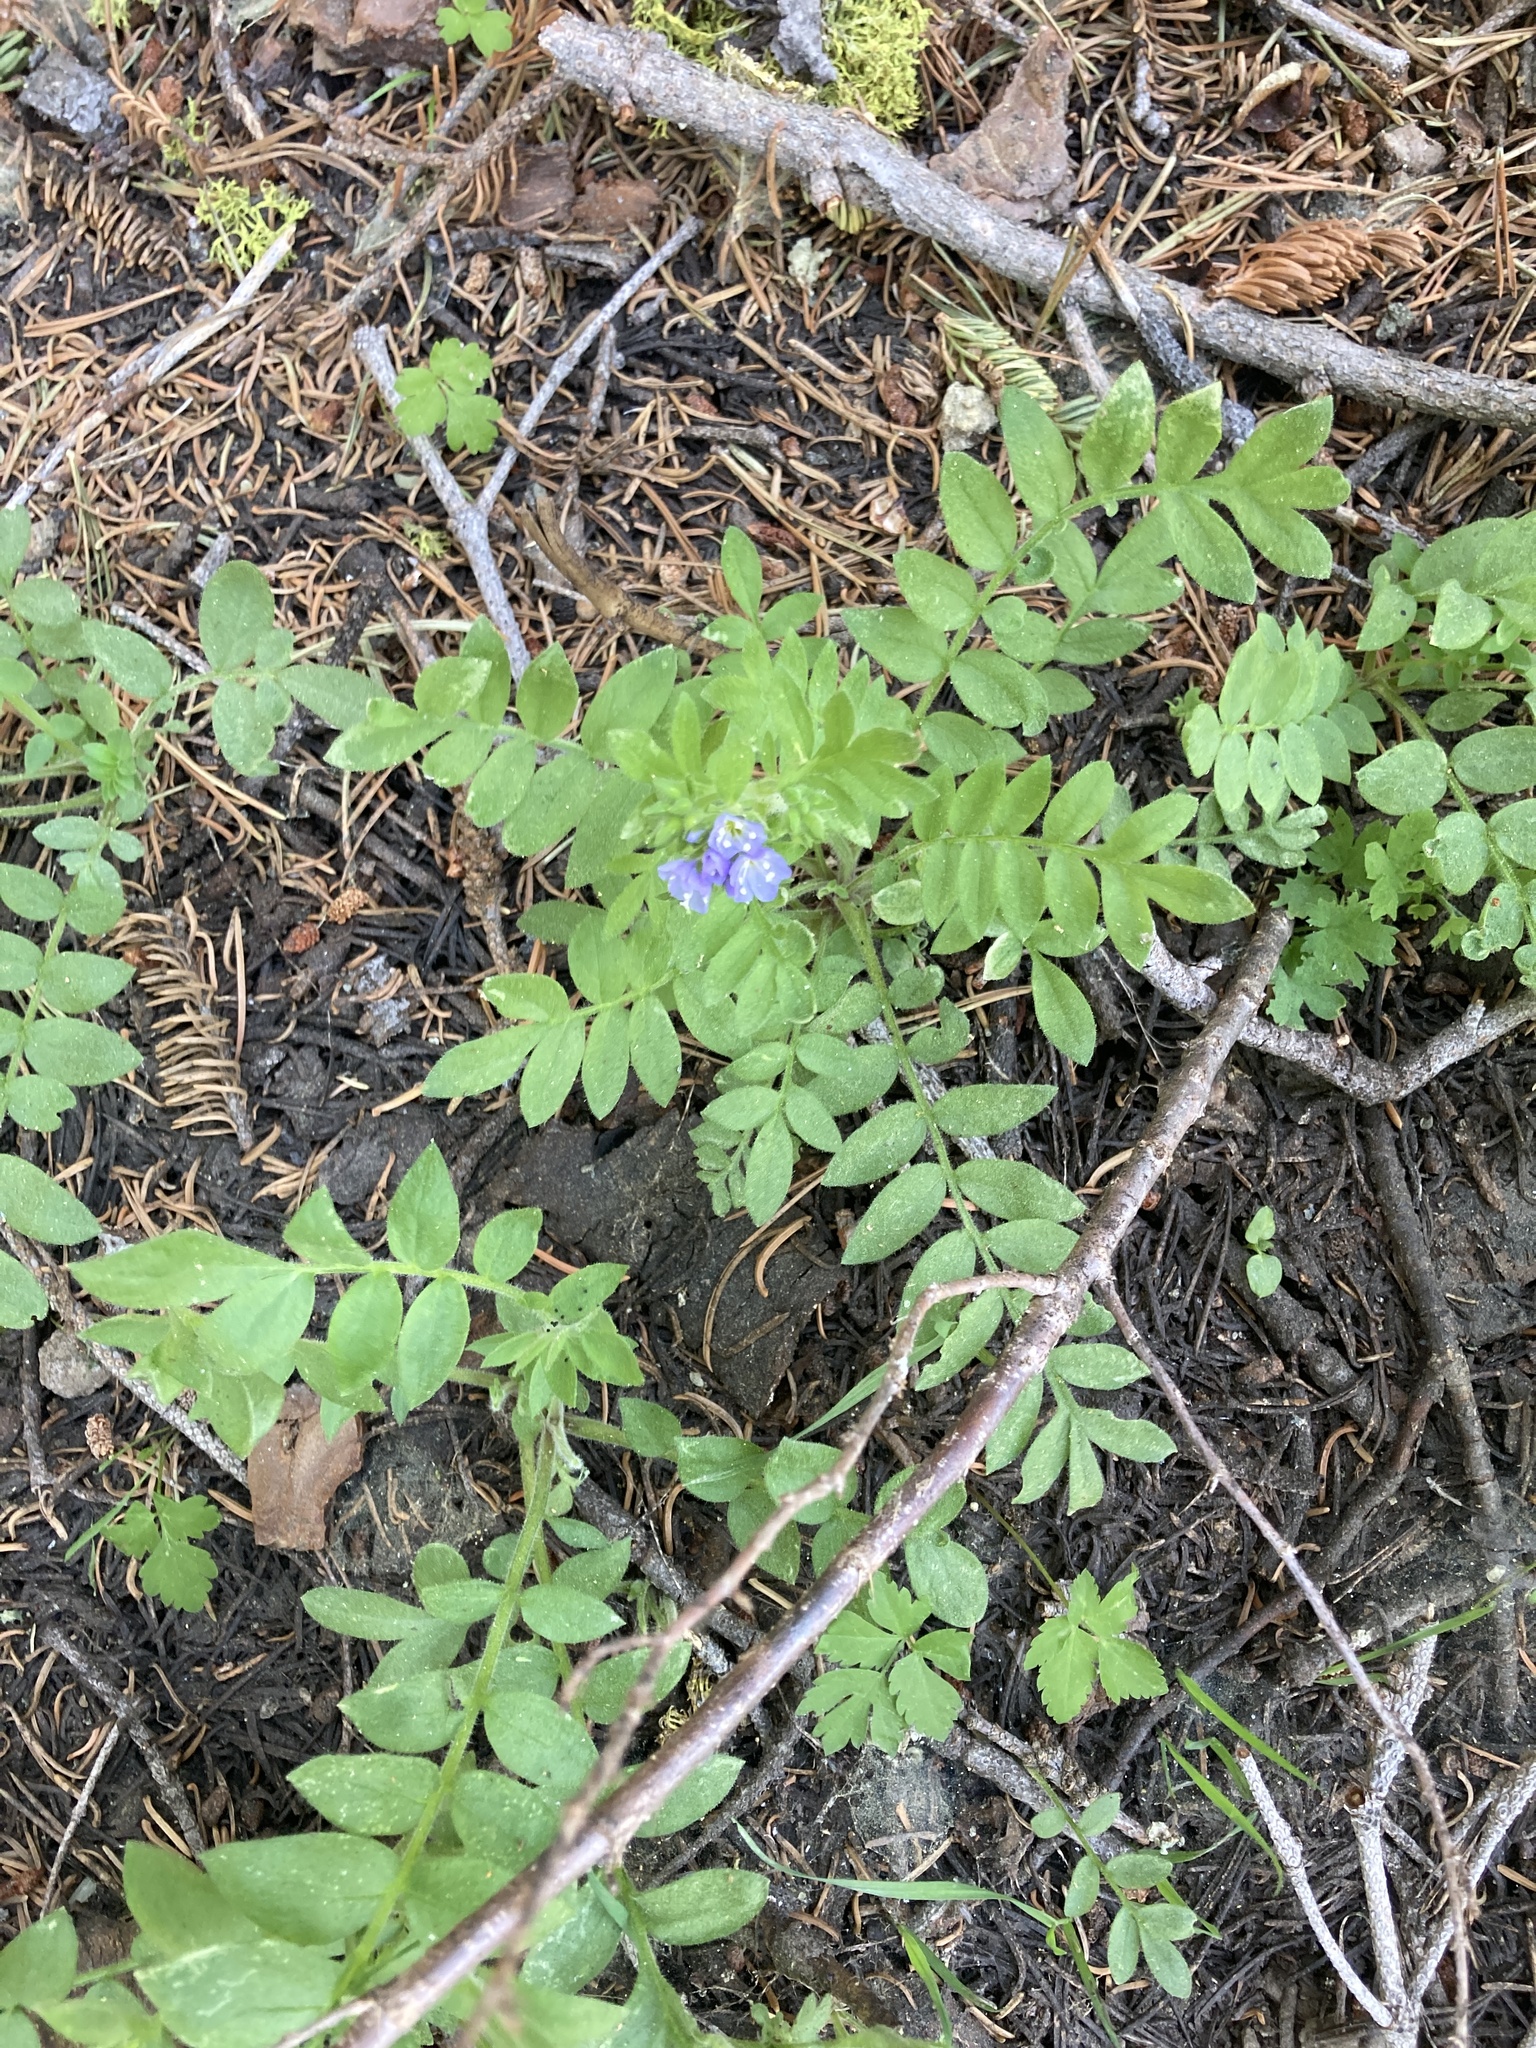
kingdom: Plantae
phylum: Tracheophyta
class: Magnoliopsida
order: Ericales
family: Polemoniaceae
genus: Polemonium
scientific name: Polemonium californicum
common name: California jacob's ladder
